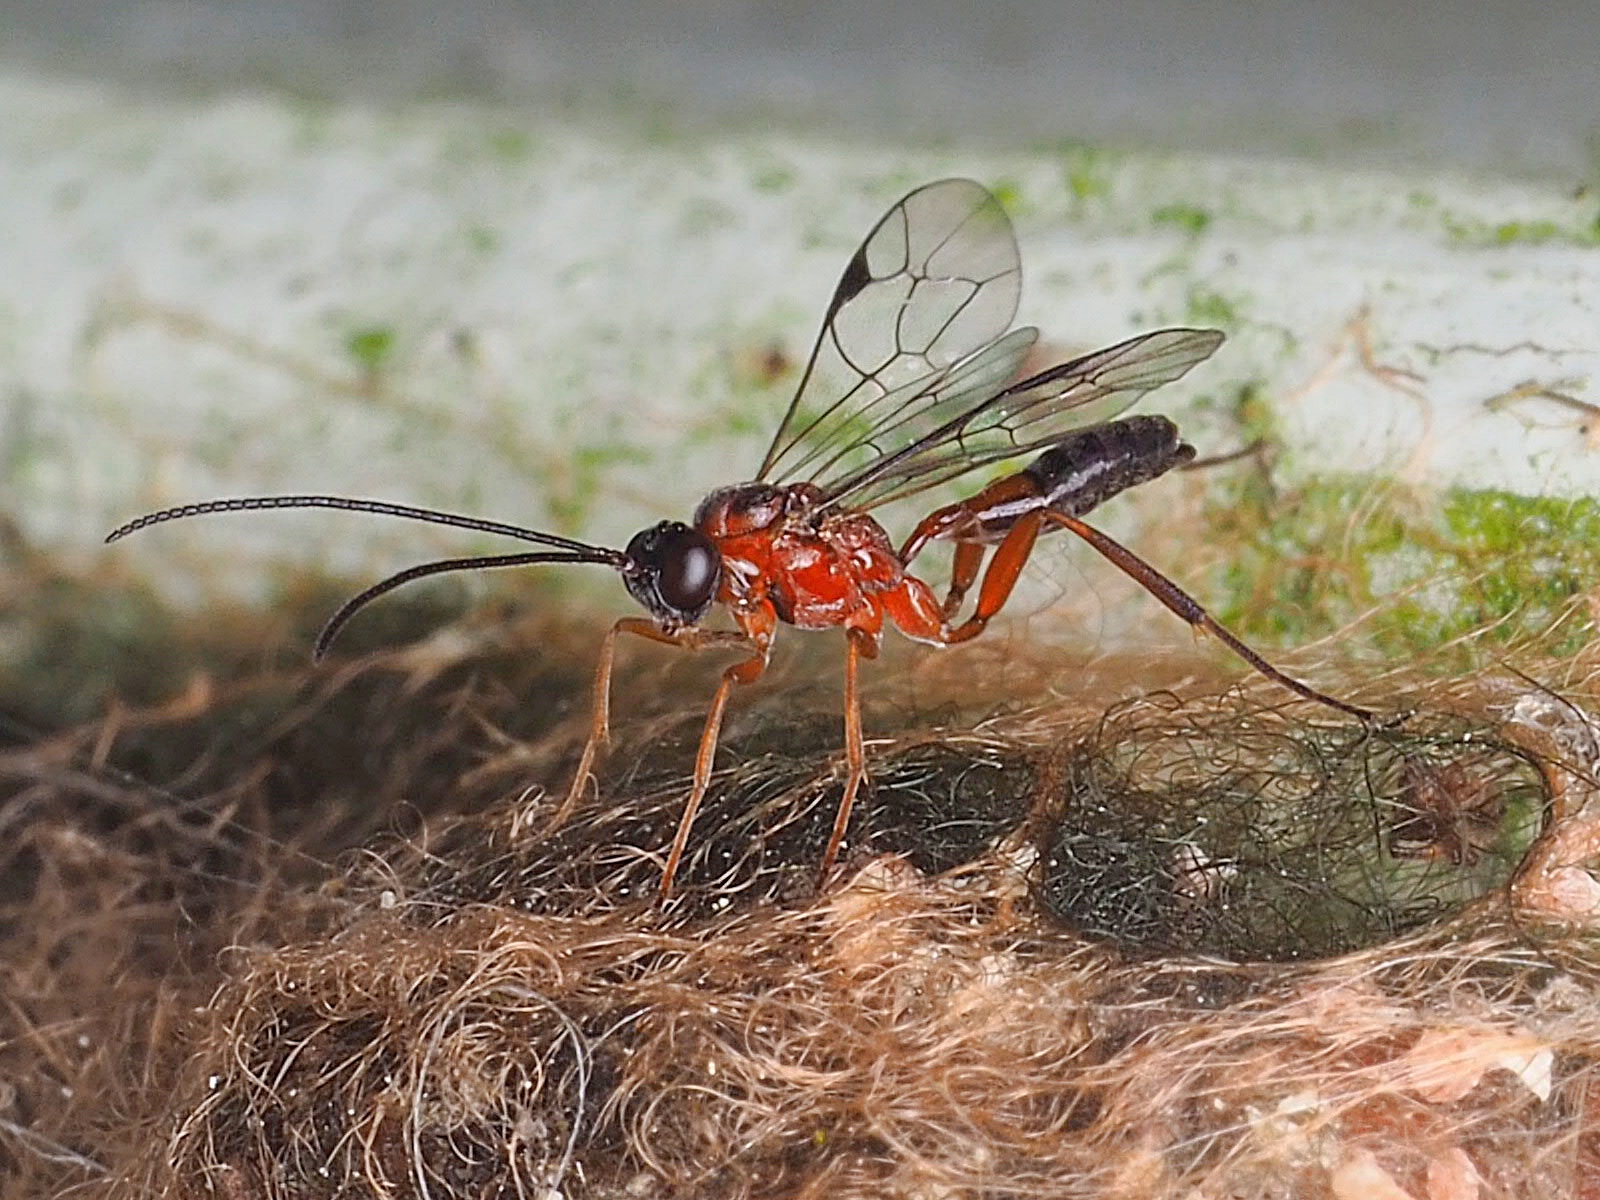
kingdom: Animalia
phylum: Arthropoda
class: Insecta
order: Hymenoptera
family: Ichneumonidae
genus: Amblyaclastus
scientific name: Amblyaclastus melanops
